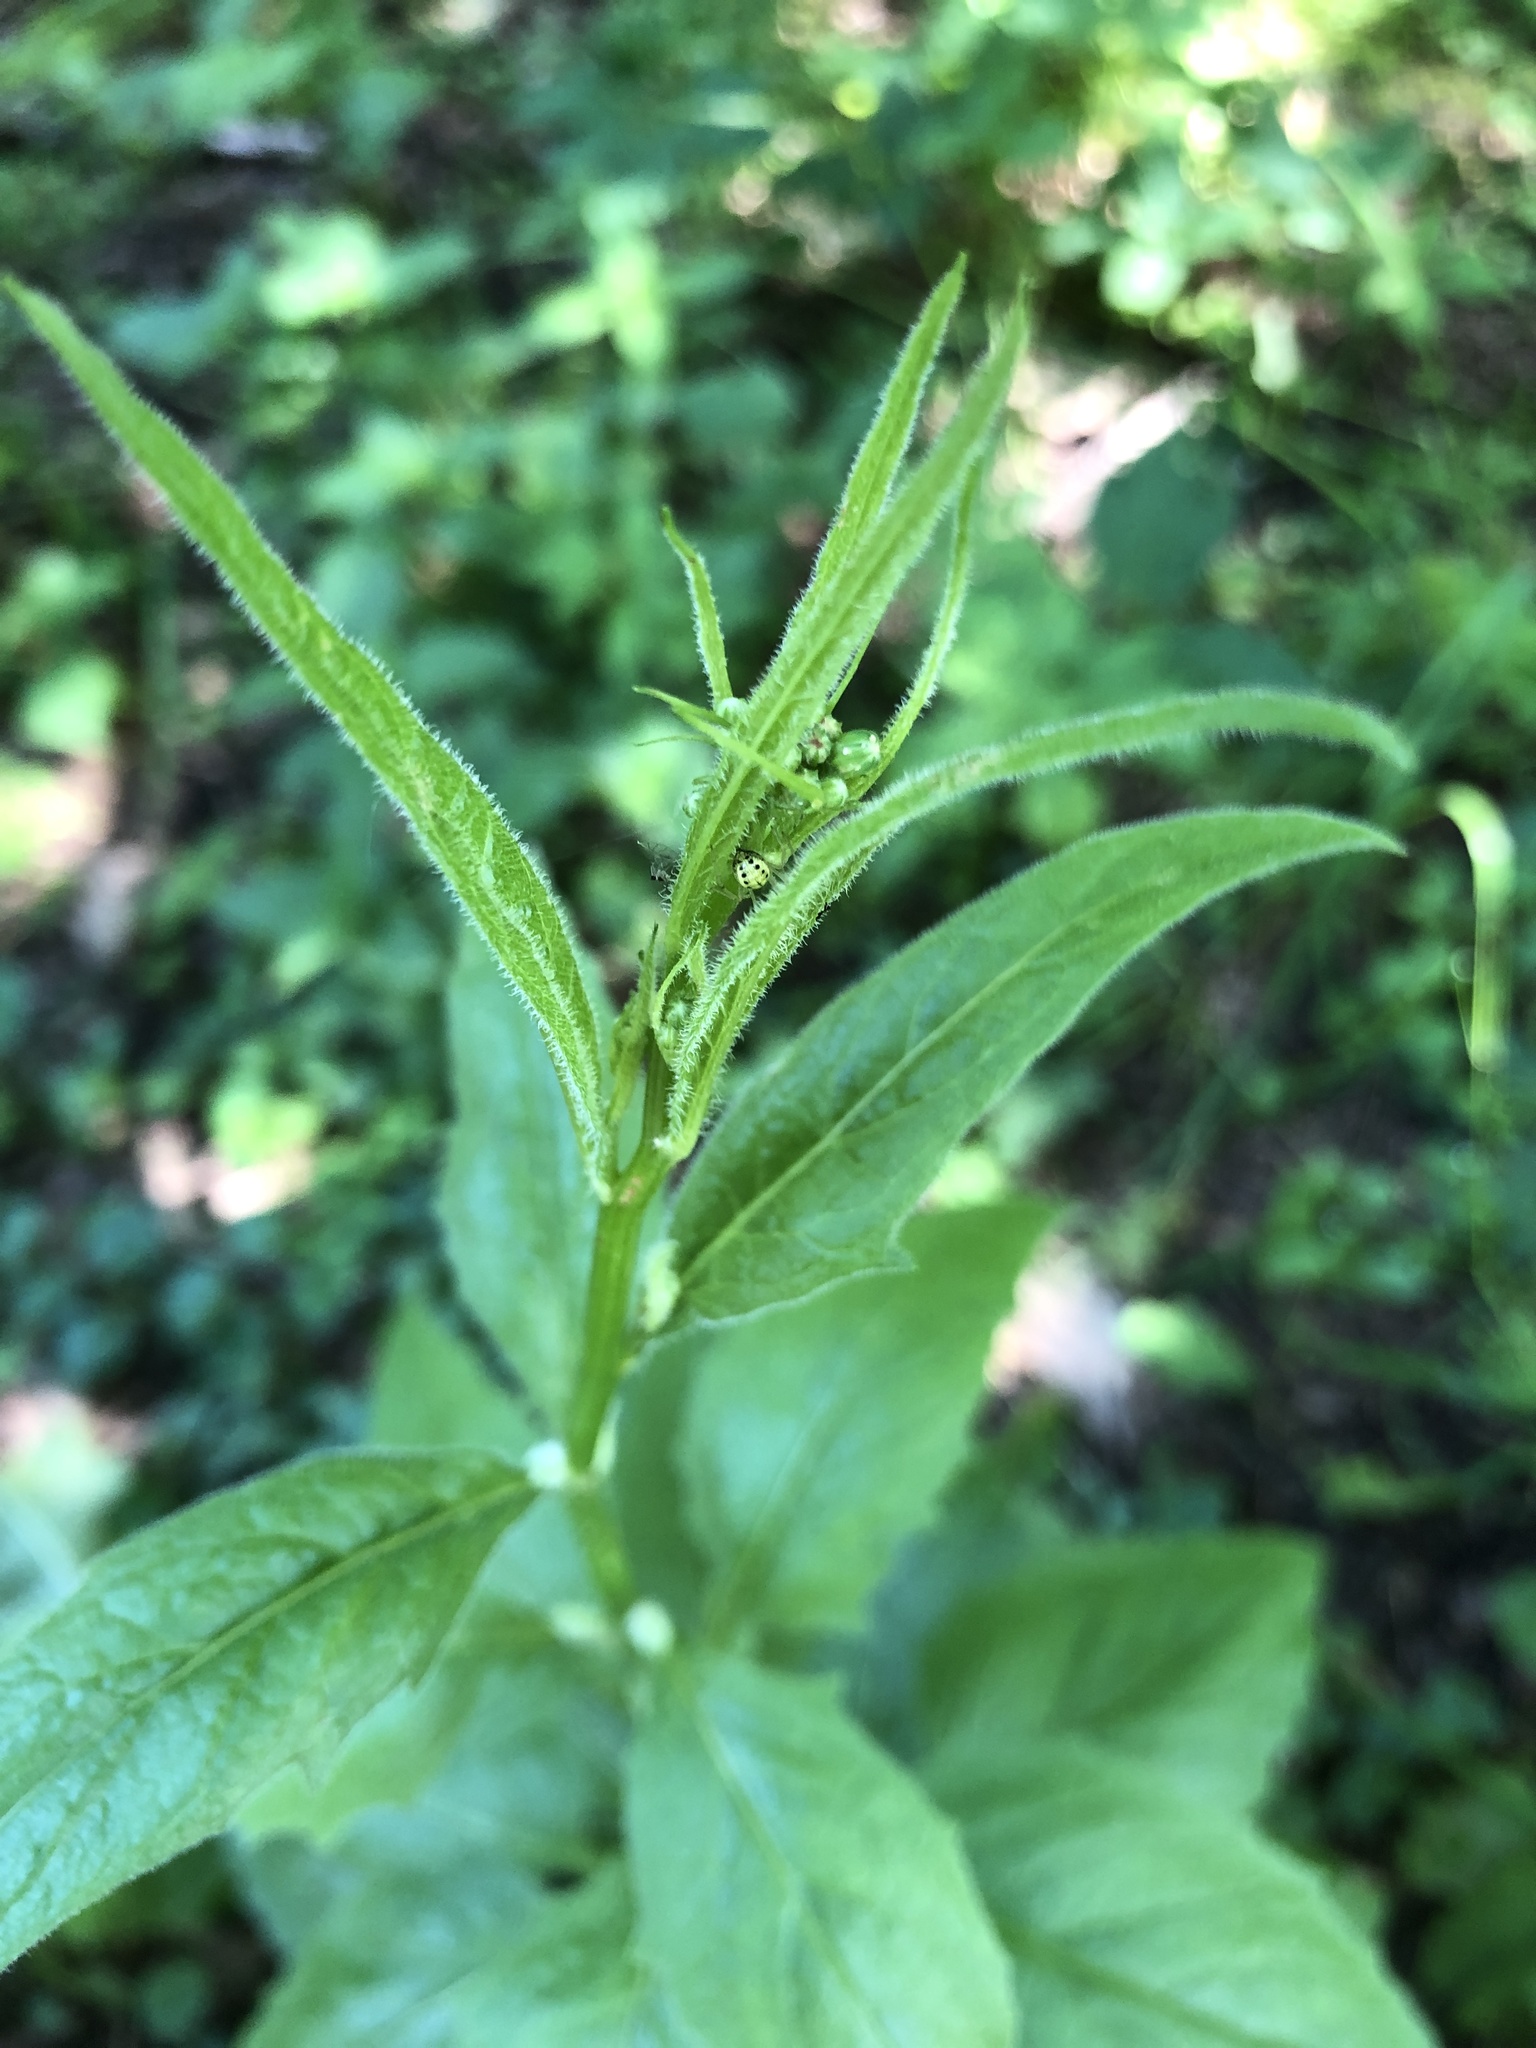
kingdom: Plantae
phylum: Tracheophyta
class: Magnoliopsida
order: Asterales
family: Asteraceae
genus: Lapsana
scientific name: Lapsana communis
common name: Nipplewort
